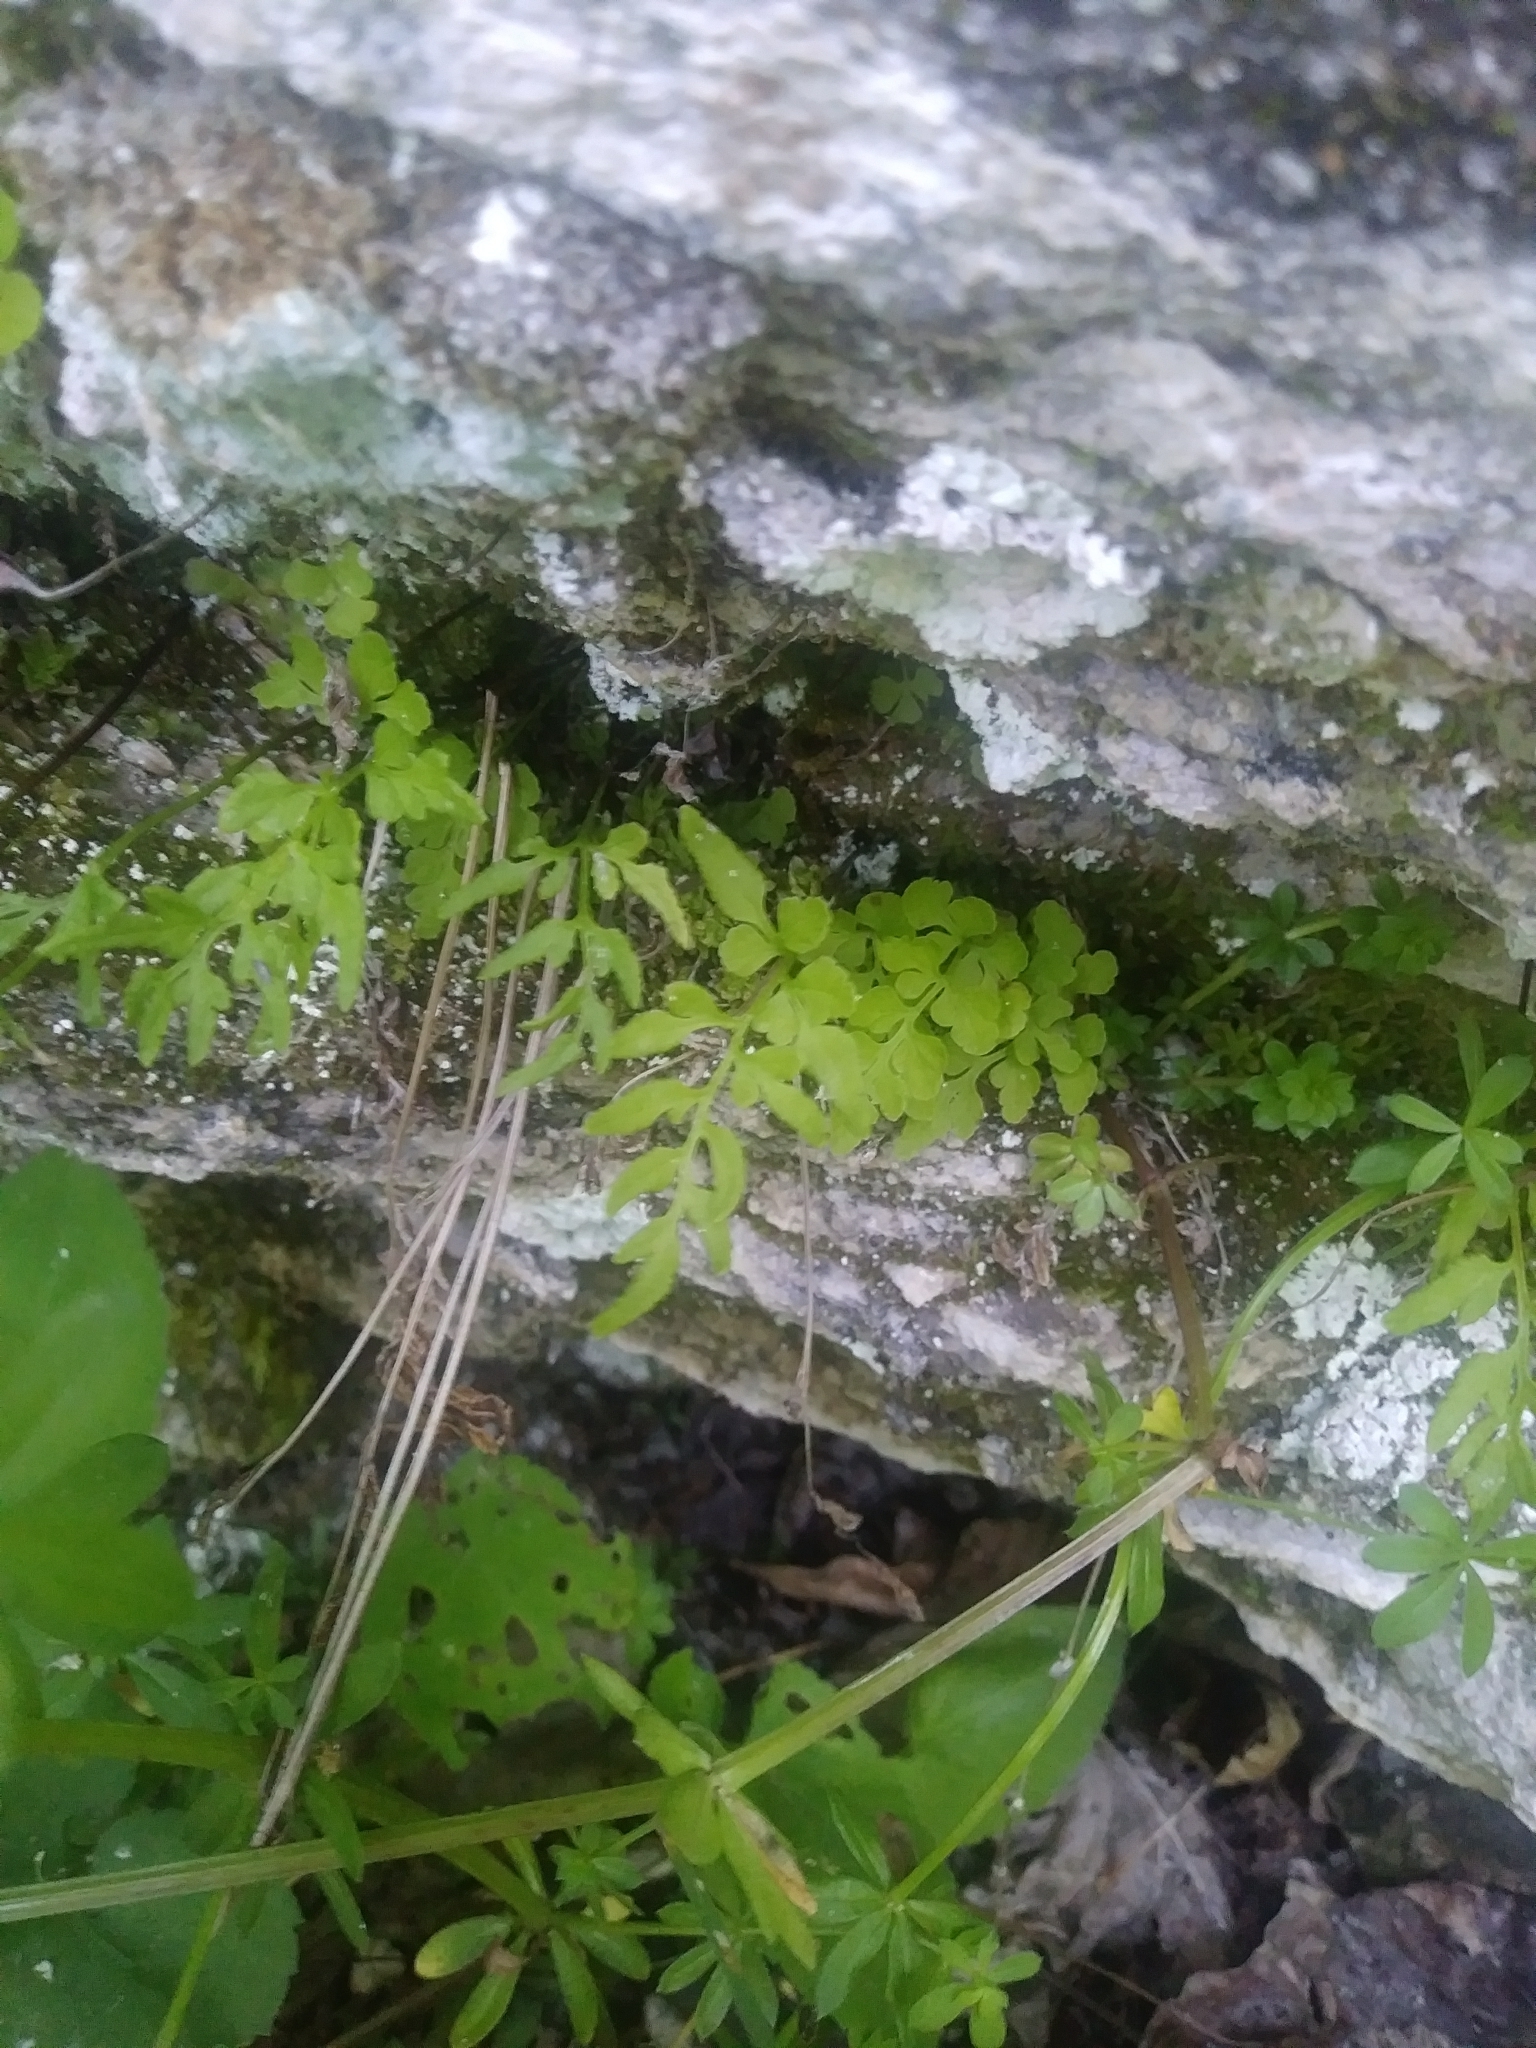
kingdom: Plantae
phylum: Tracheophyta
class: Polypodiopsida
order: Polypodiales
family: Pteridaceae
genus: Cryptogramma
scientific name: Cryptogramma stelleri
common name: Cliff-brake
